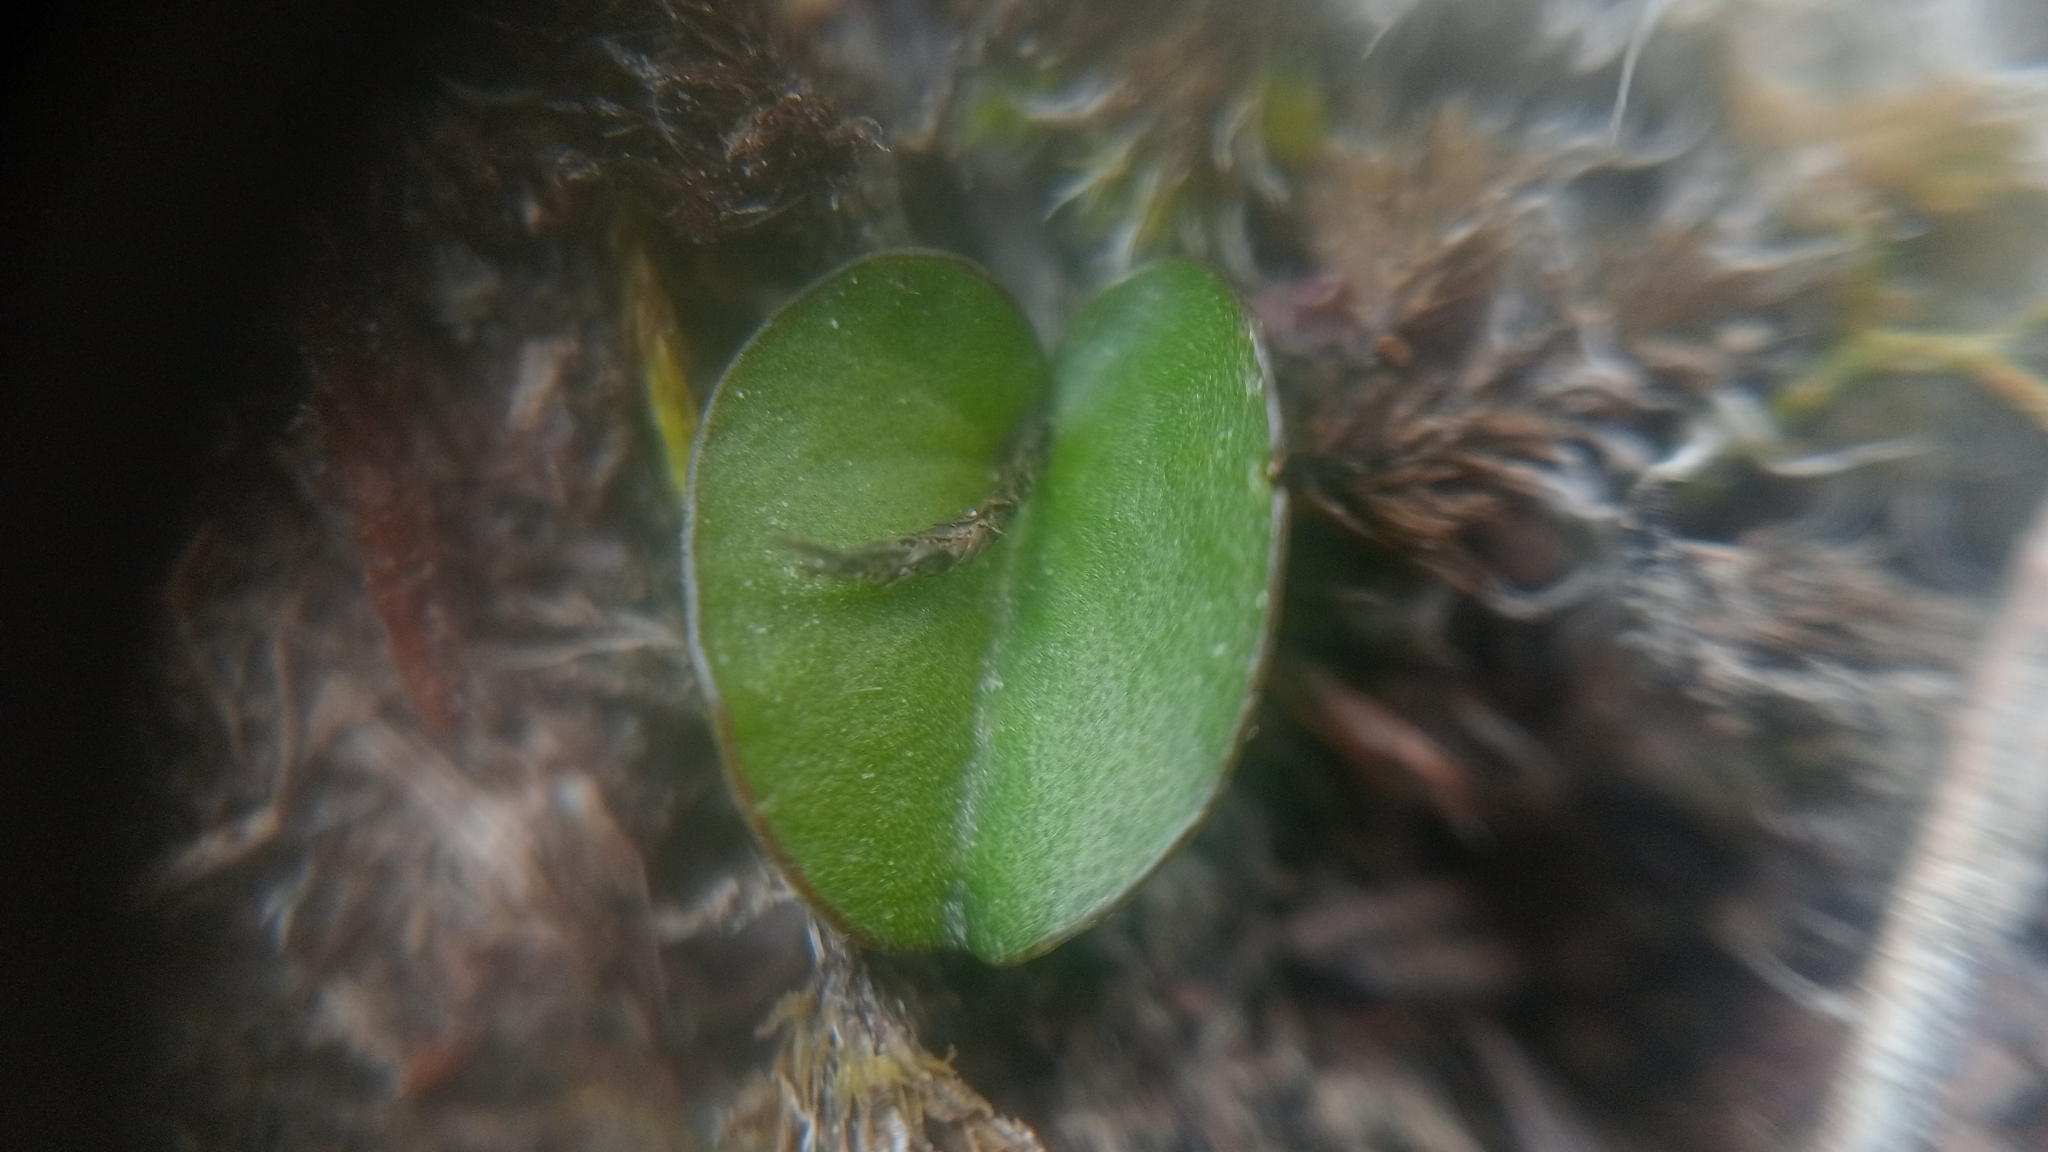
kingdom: Plantae
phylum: Tracheophyta
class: Magnoliopsida
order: Solanales
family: Convolvulaceae
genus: Dichondra
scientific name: Dichondra brevifolia
